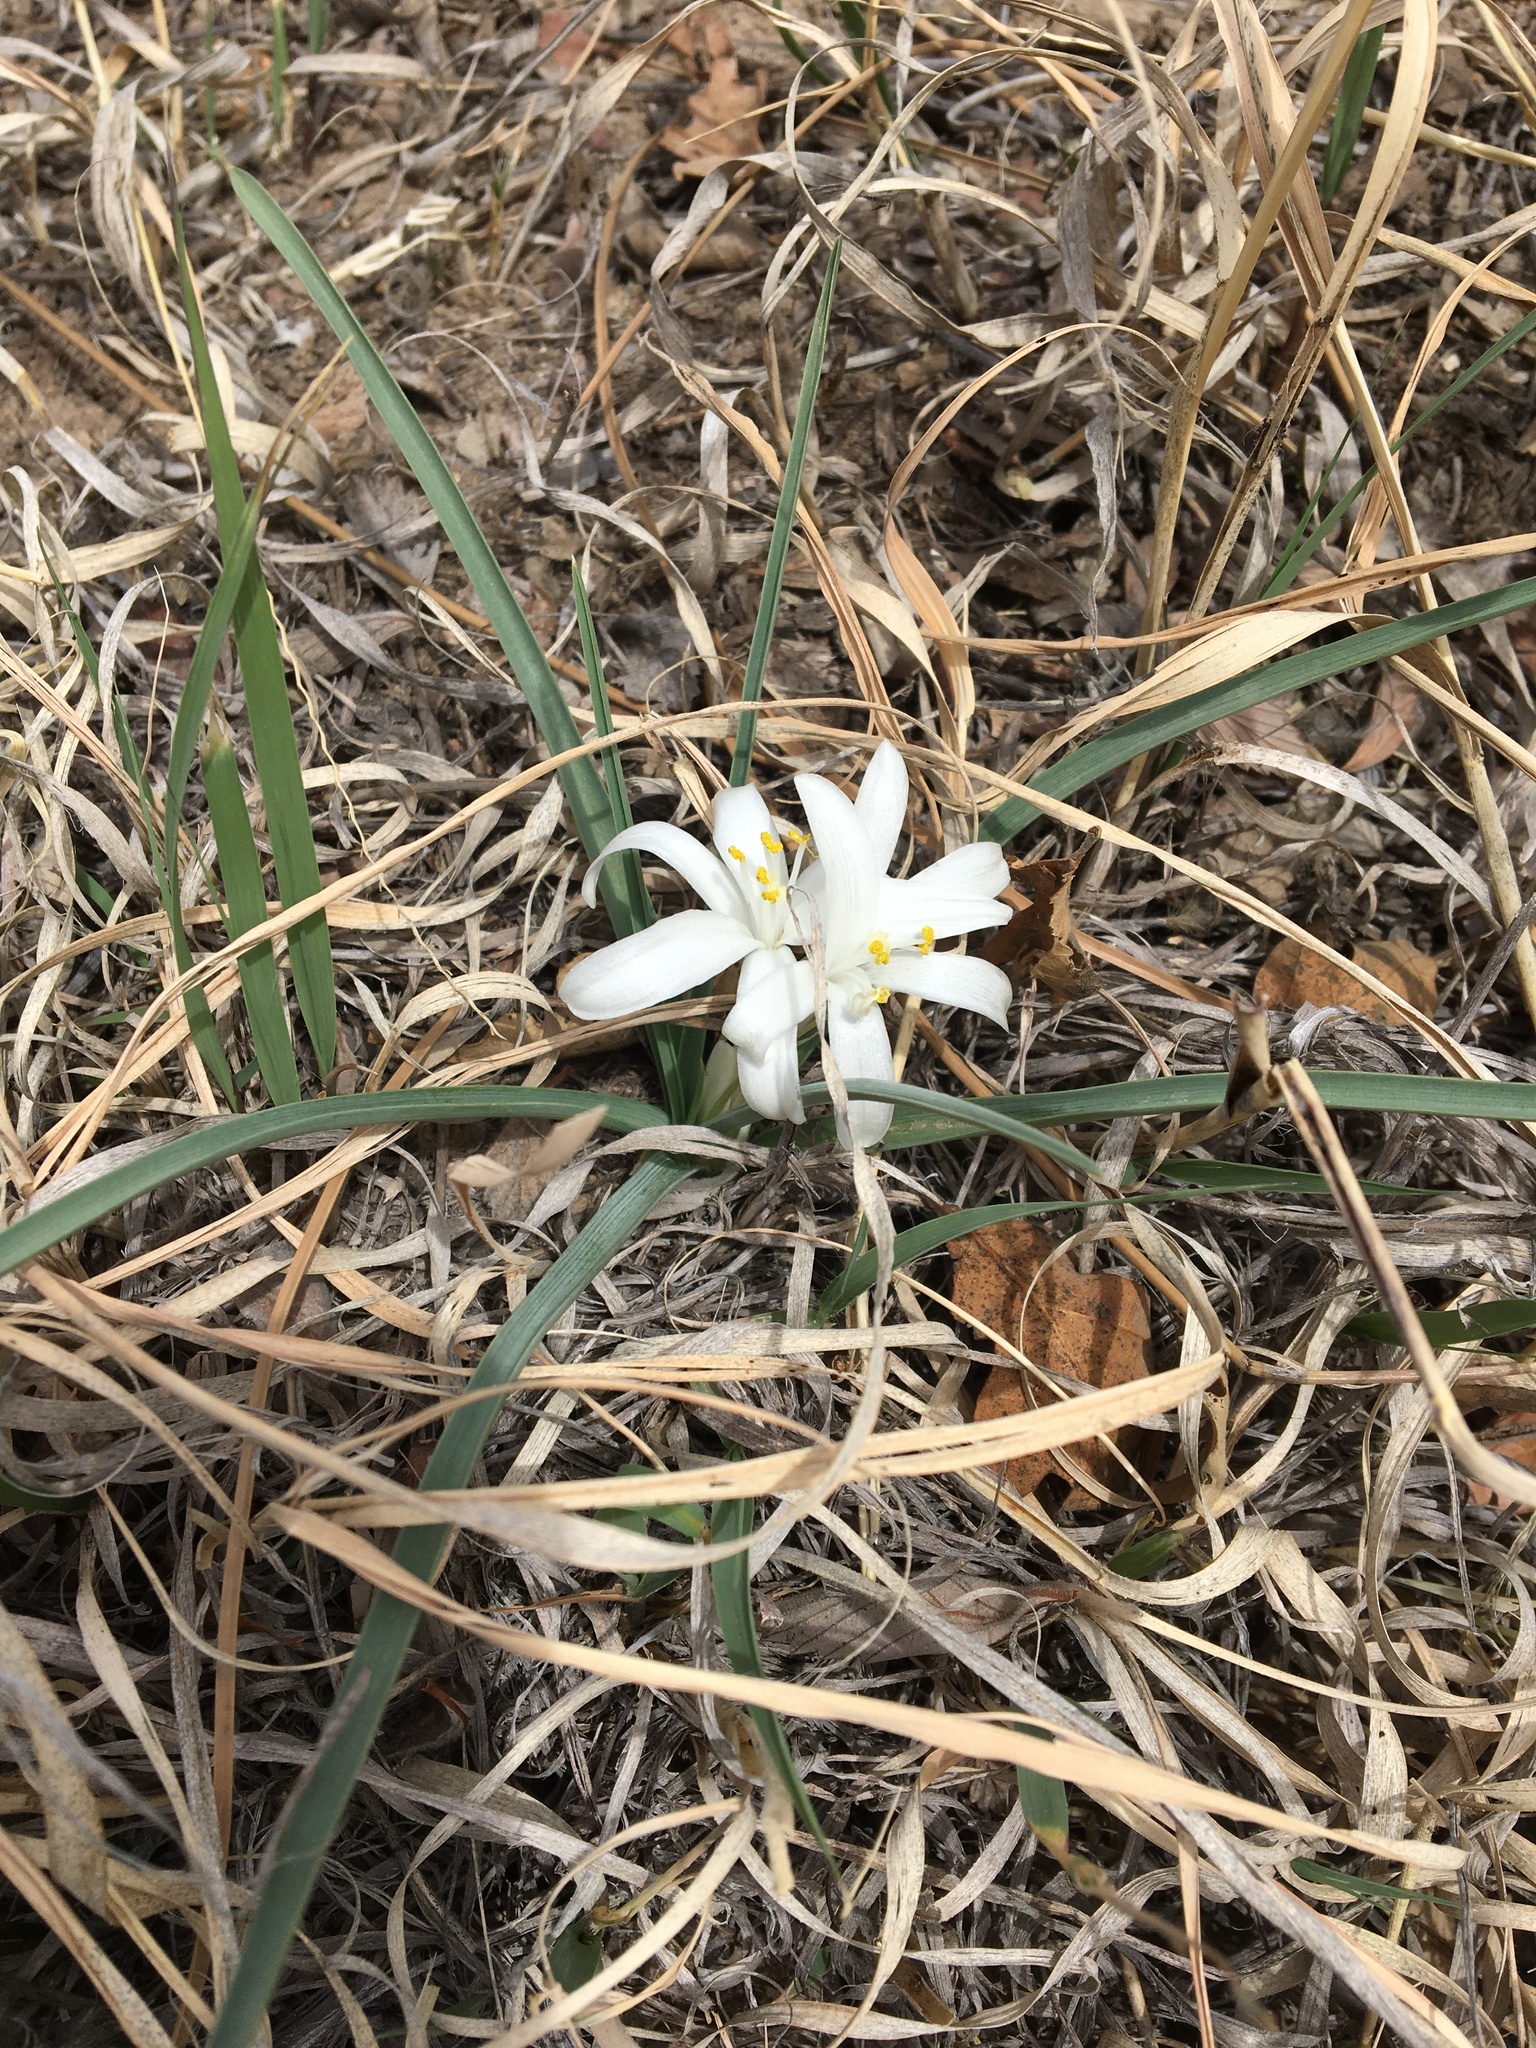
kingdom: Plantae
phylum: Tracheophyta
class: Liliopsida
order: Asparagales
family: Asparagaceae
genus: Leucocrinum
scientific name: Leucocrinum montanum
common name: Mountain-lily
